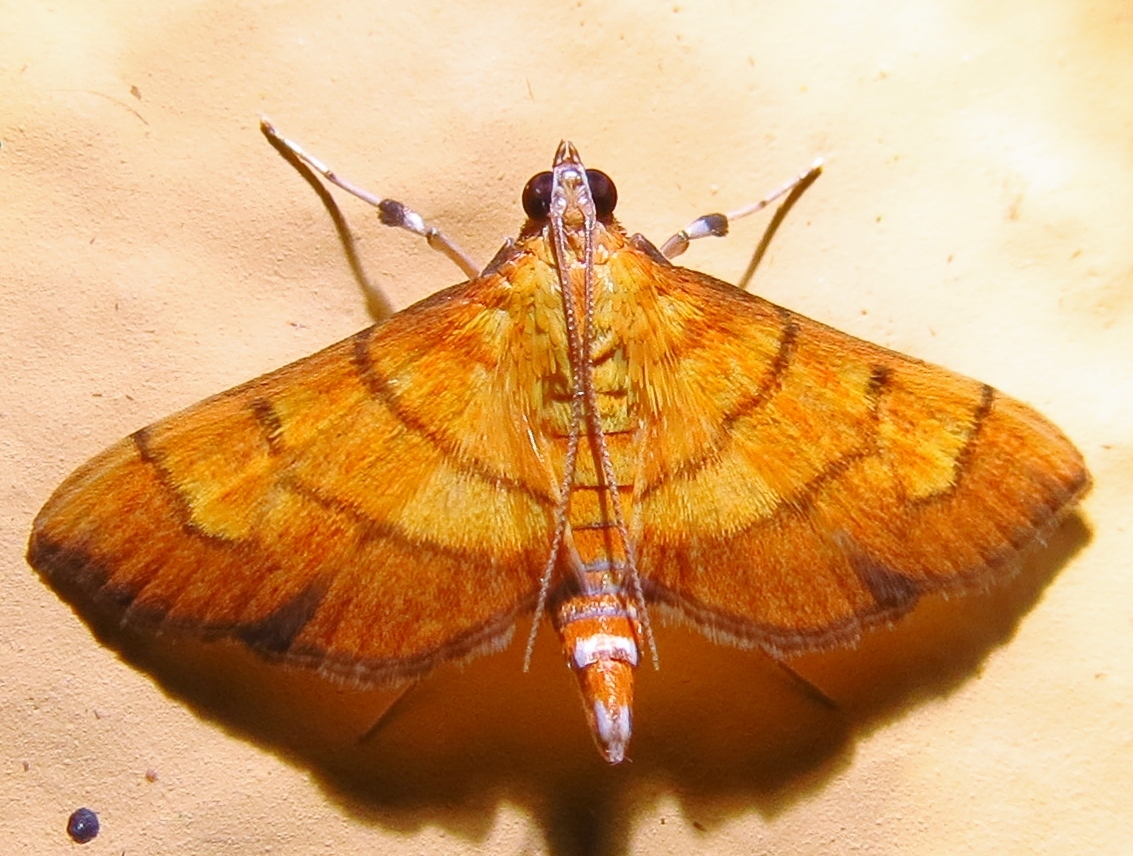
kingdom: Animalia
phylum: Arthropoda
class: Insecta
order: Lepidoptera
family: Crambidae
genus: Salbia
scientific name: Salbia haemorrhoidalis
